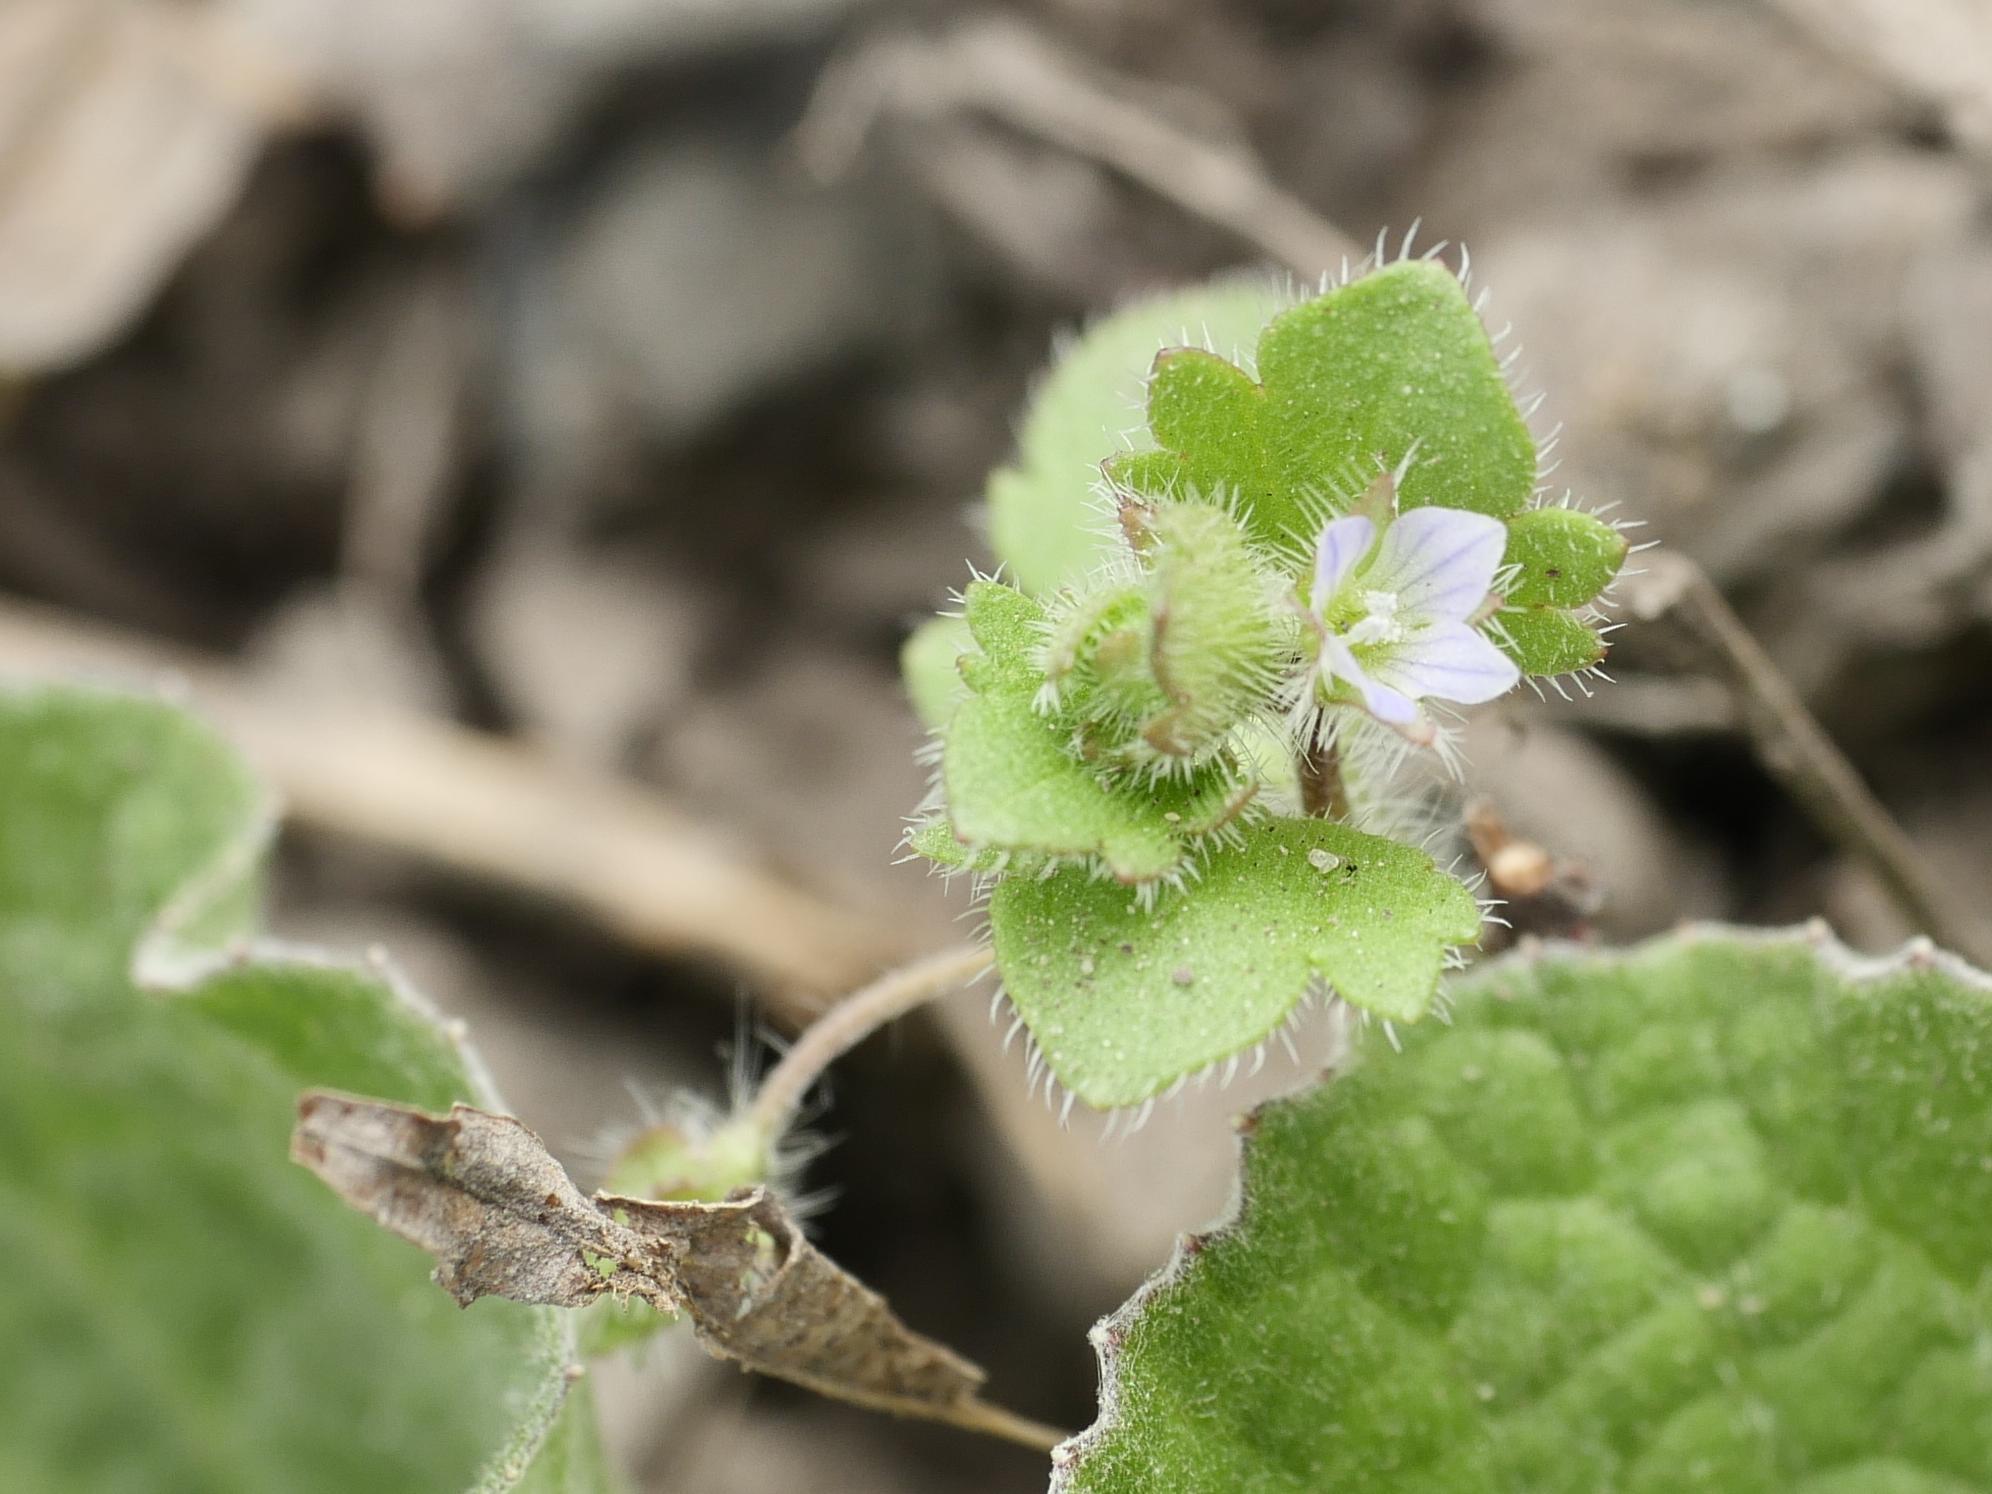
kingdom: Plantae
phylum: Tracheophyta
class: Magnoliopsida
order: Lamiales
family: Plantaginaceae
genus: Veronica
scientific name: Veronica sublobata
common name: False ivy-leaved speedwell
